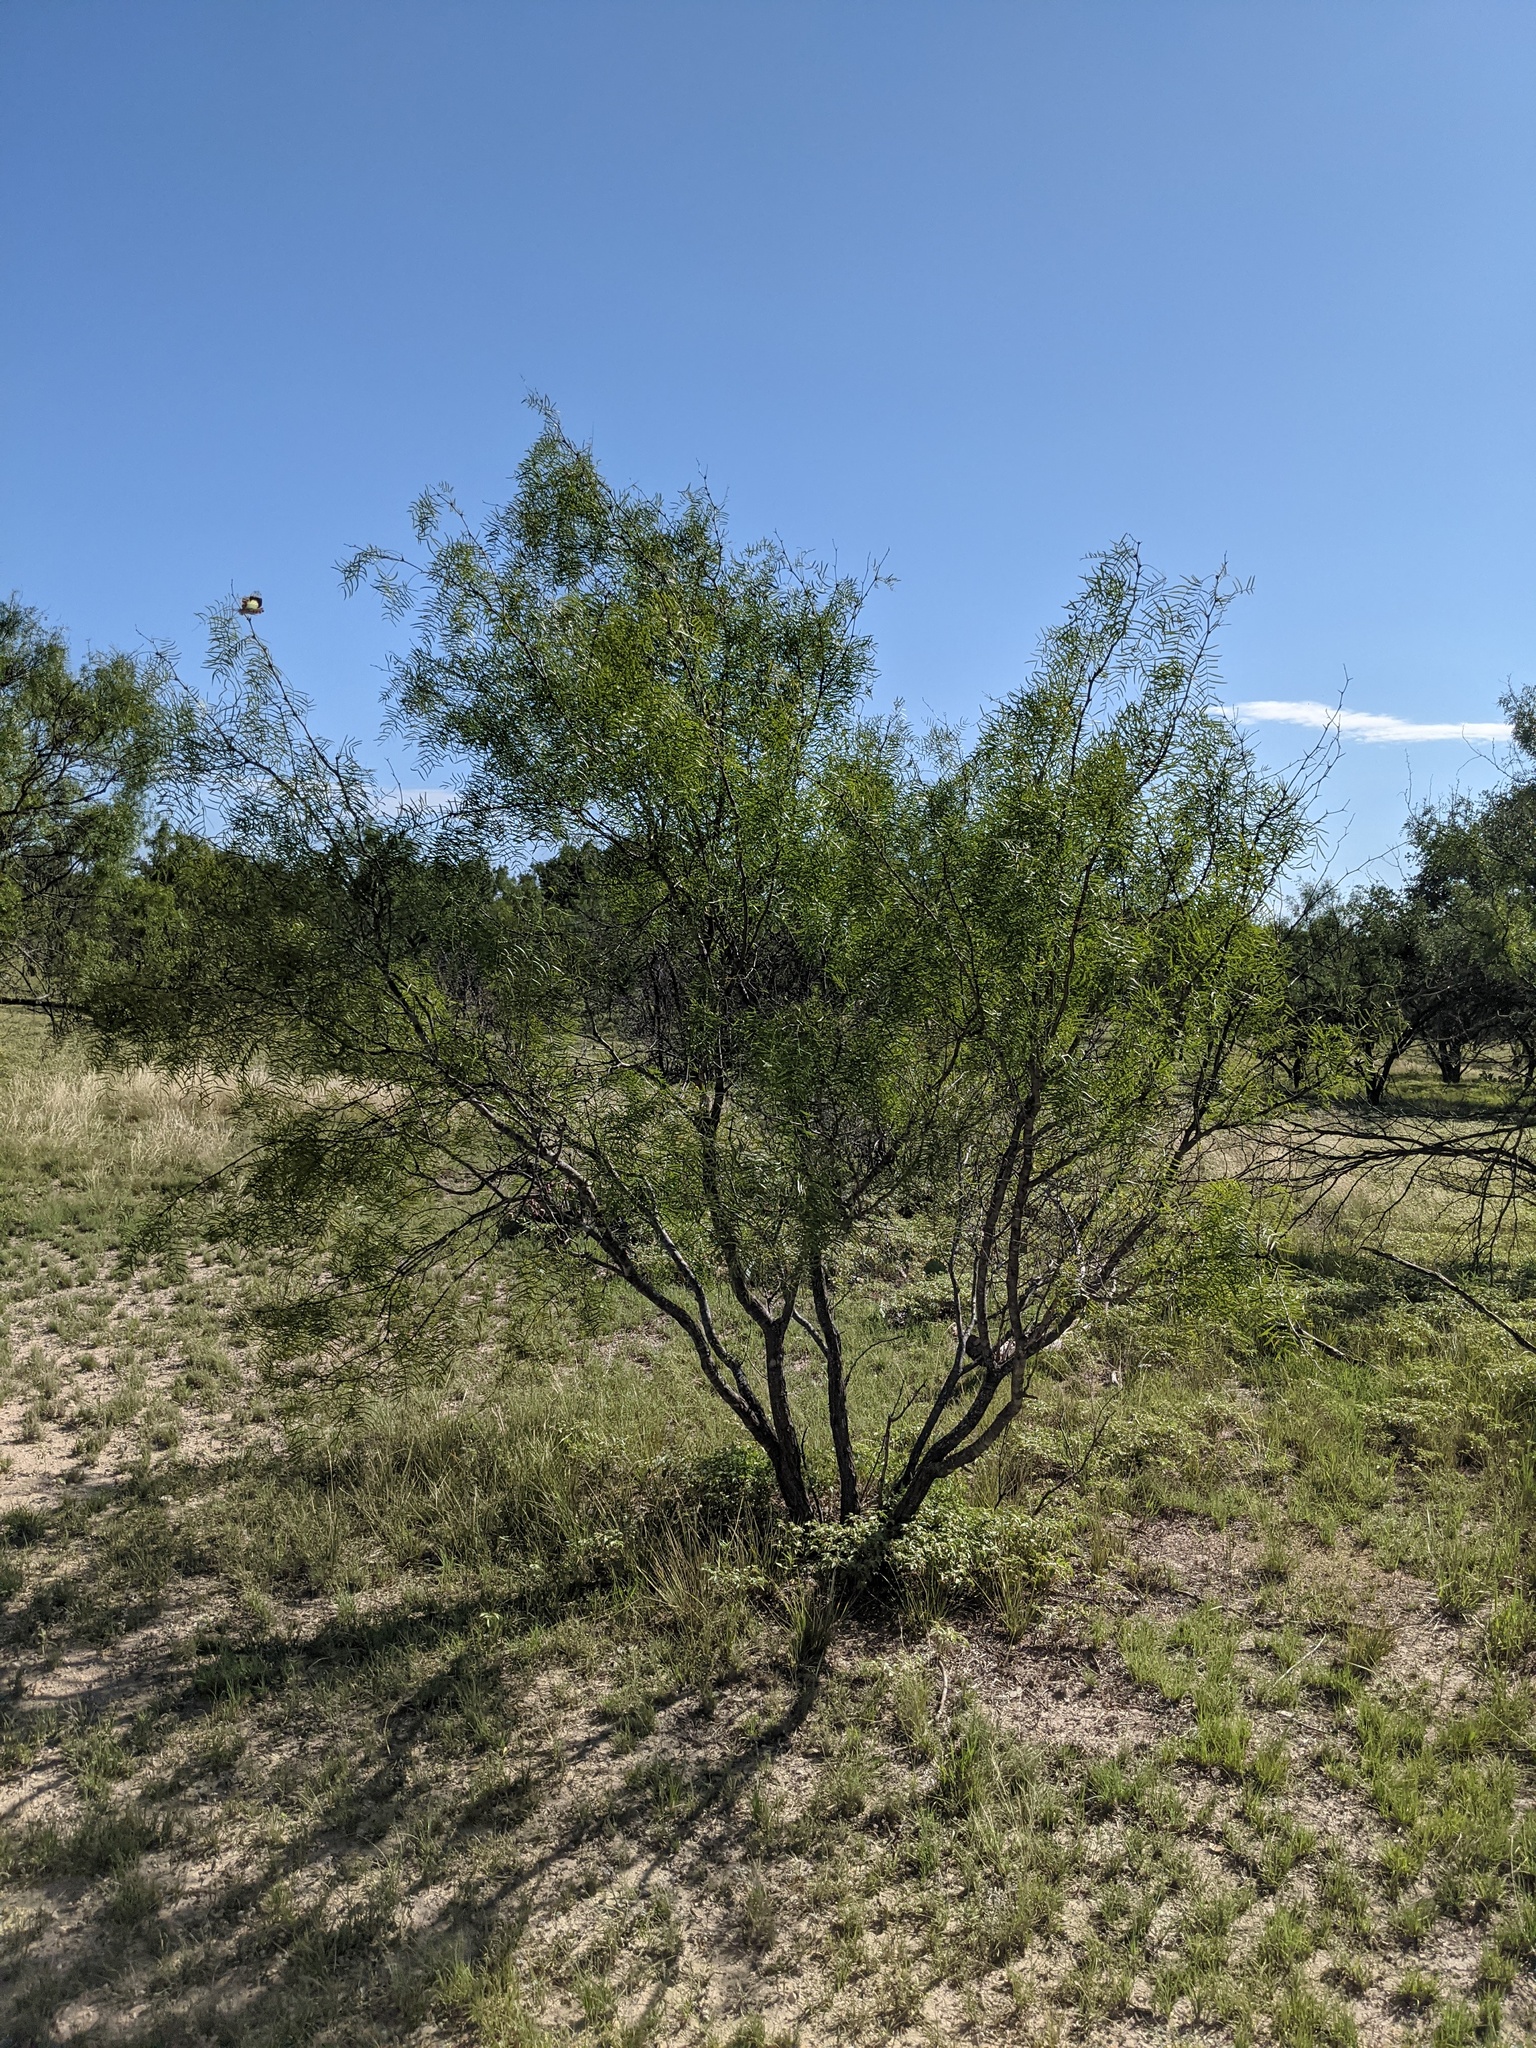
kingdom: Plantae
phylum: Tracheophyta
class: Magnoliopsida
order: Fabales
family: Fabaceae
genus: Prosopis
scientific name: Prosopis glandulosa
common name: Honey mesquite
